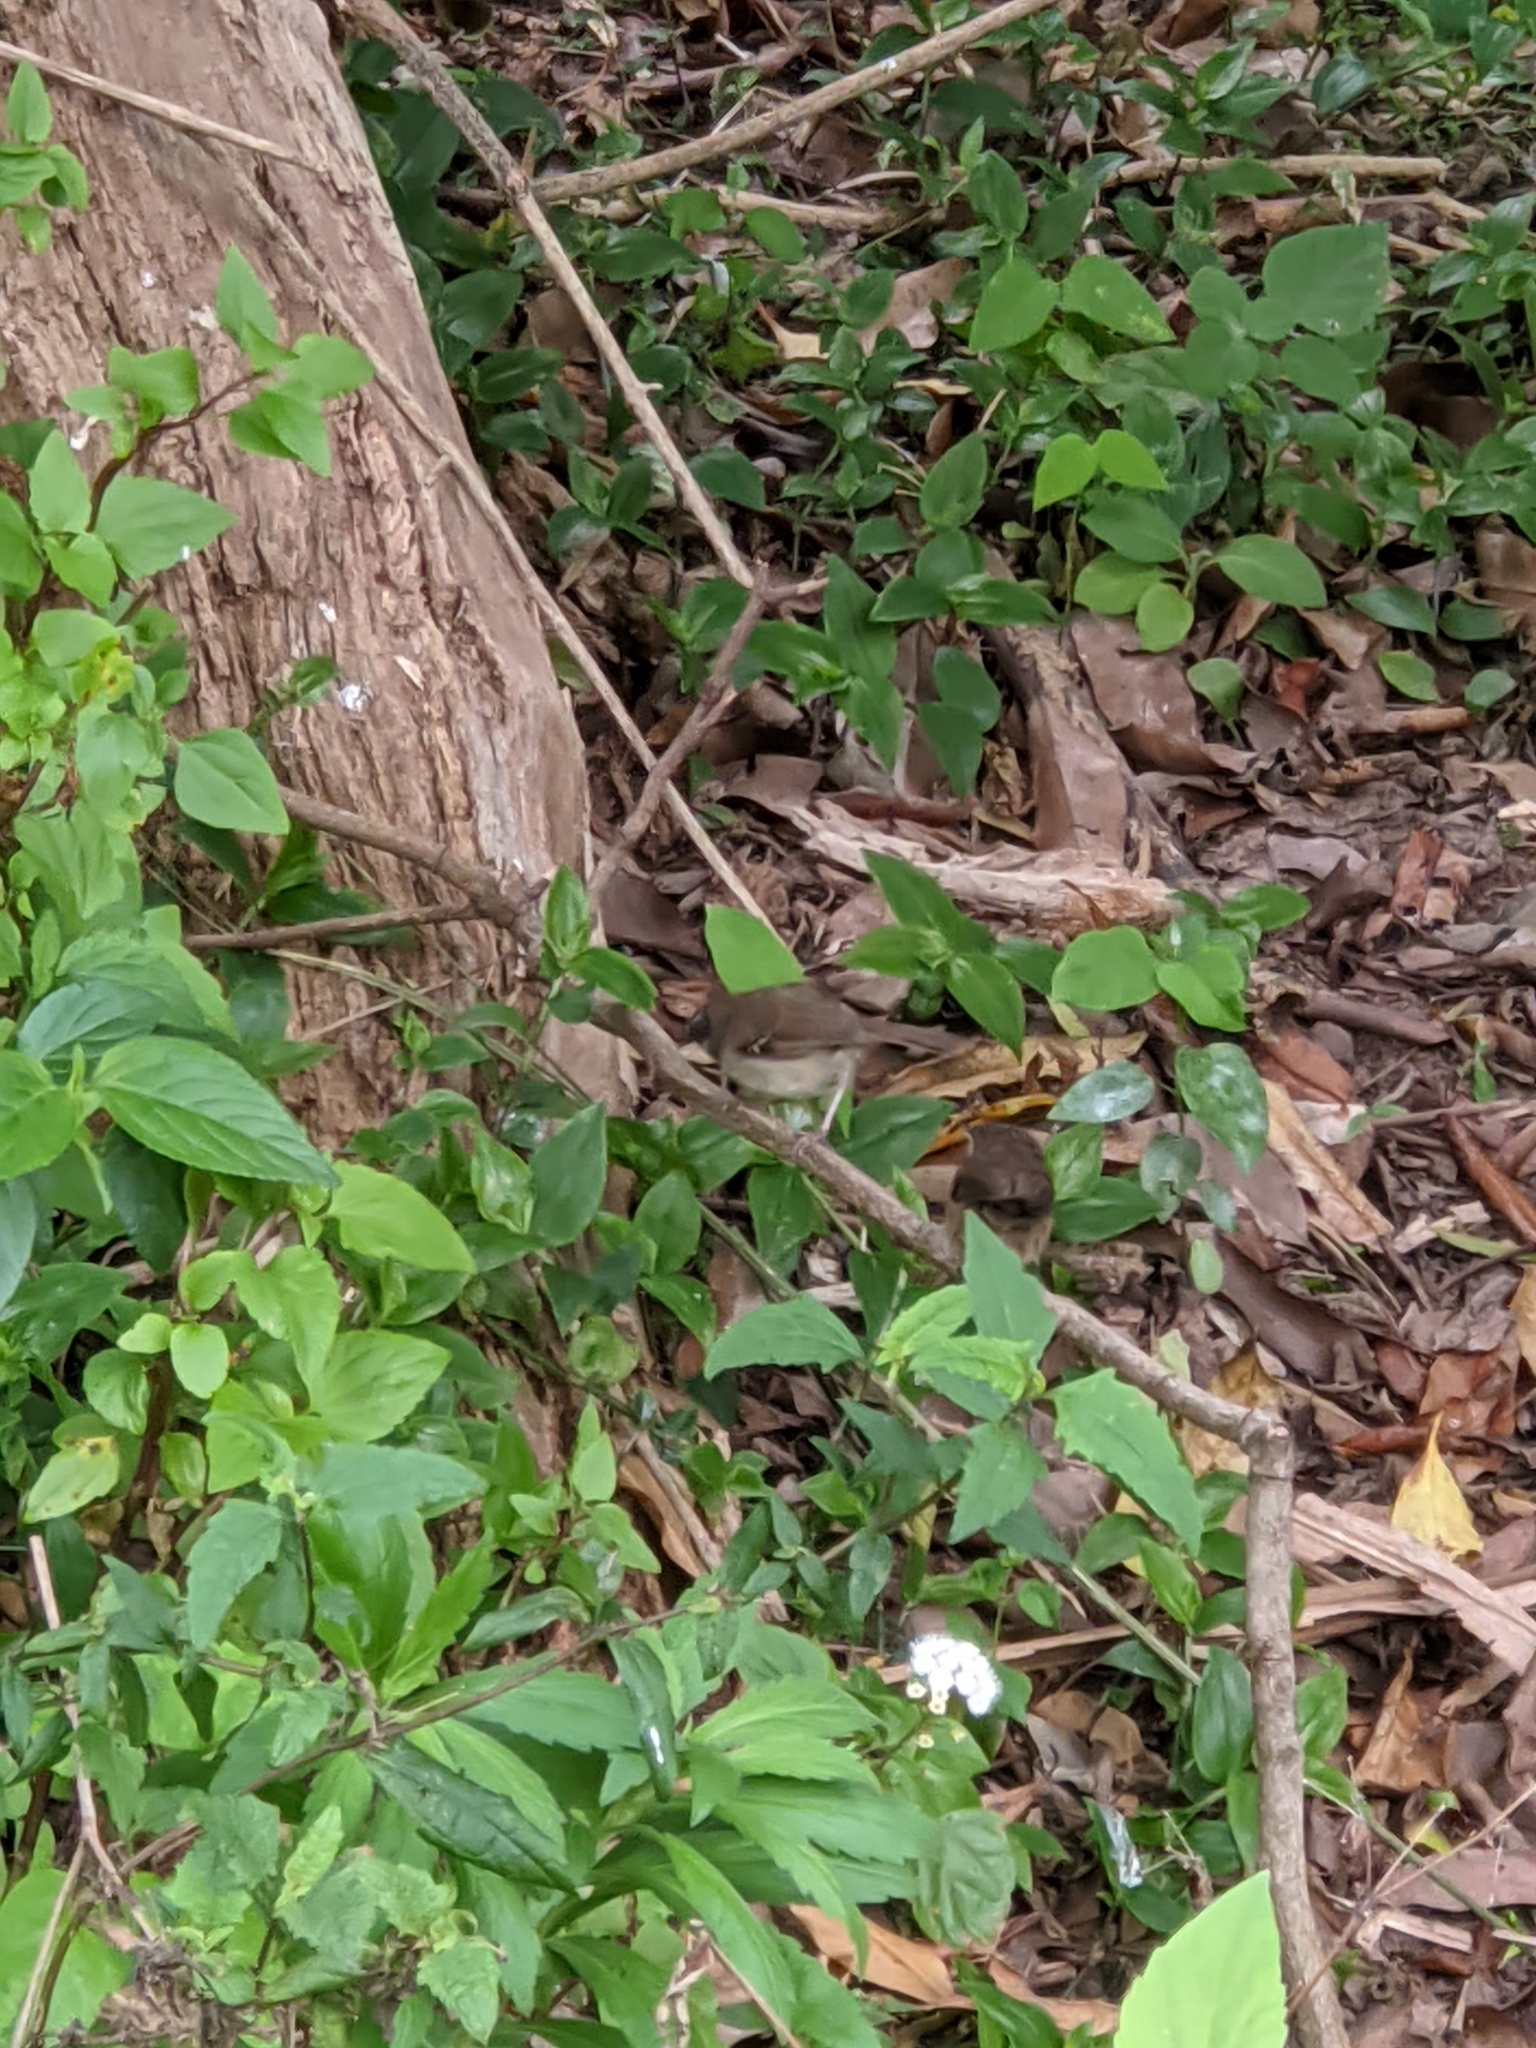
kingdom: Animalia
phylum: Chordata
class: Aves
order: Passeriformes
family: Acanthizidae
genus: Sericornis
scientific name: Sericornis frontalis
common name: White-browed scrubwren
